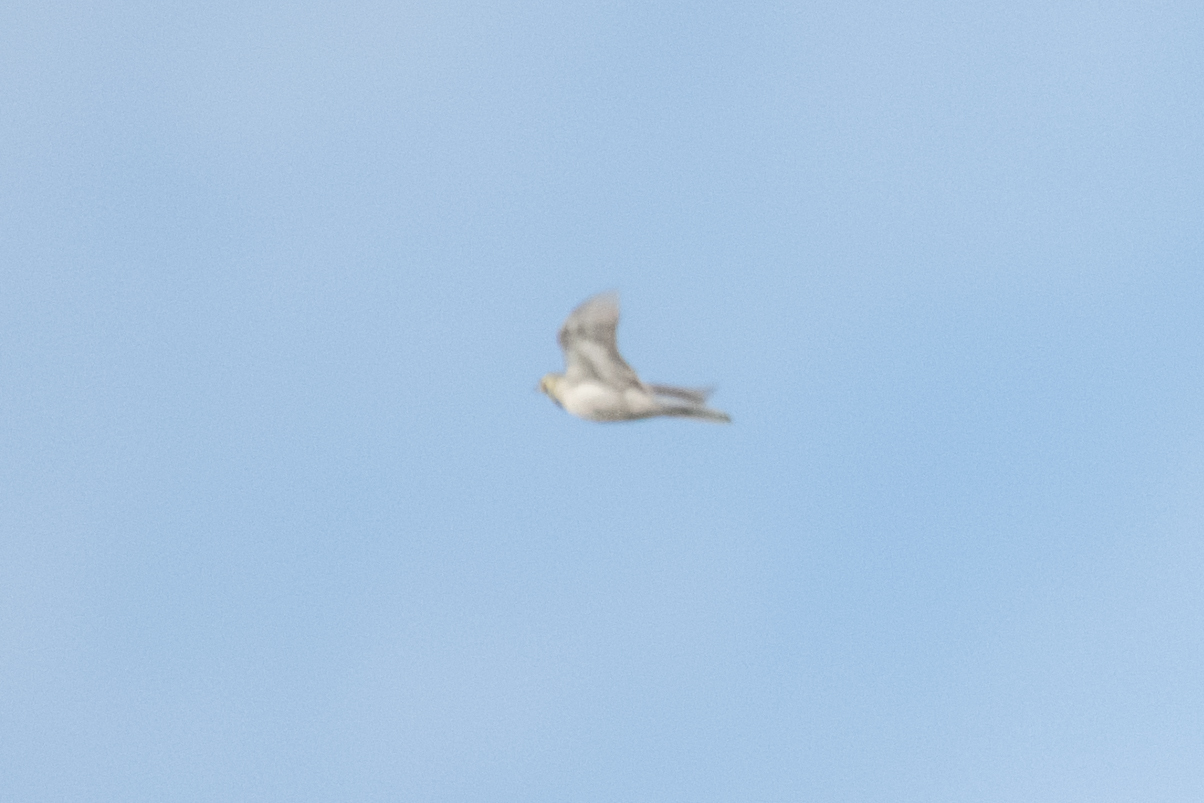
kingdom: Animalia
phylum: Chordata
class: Aves
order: Passeriformes
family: Motacillidae
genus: Motacilla
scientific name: Motacilla alba
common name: White wagtail
